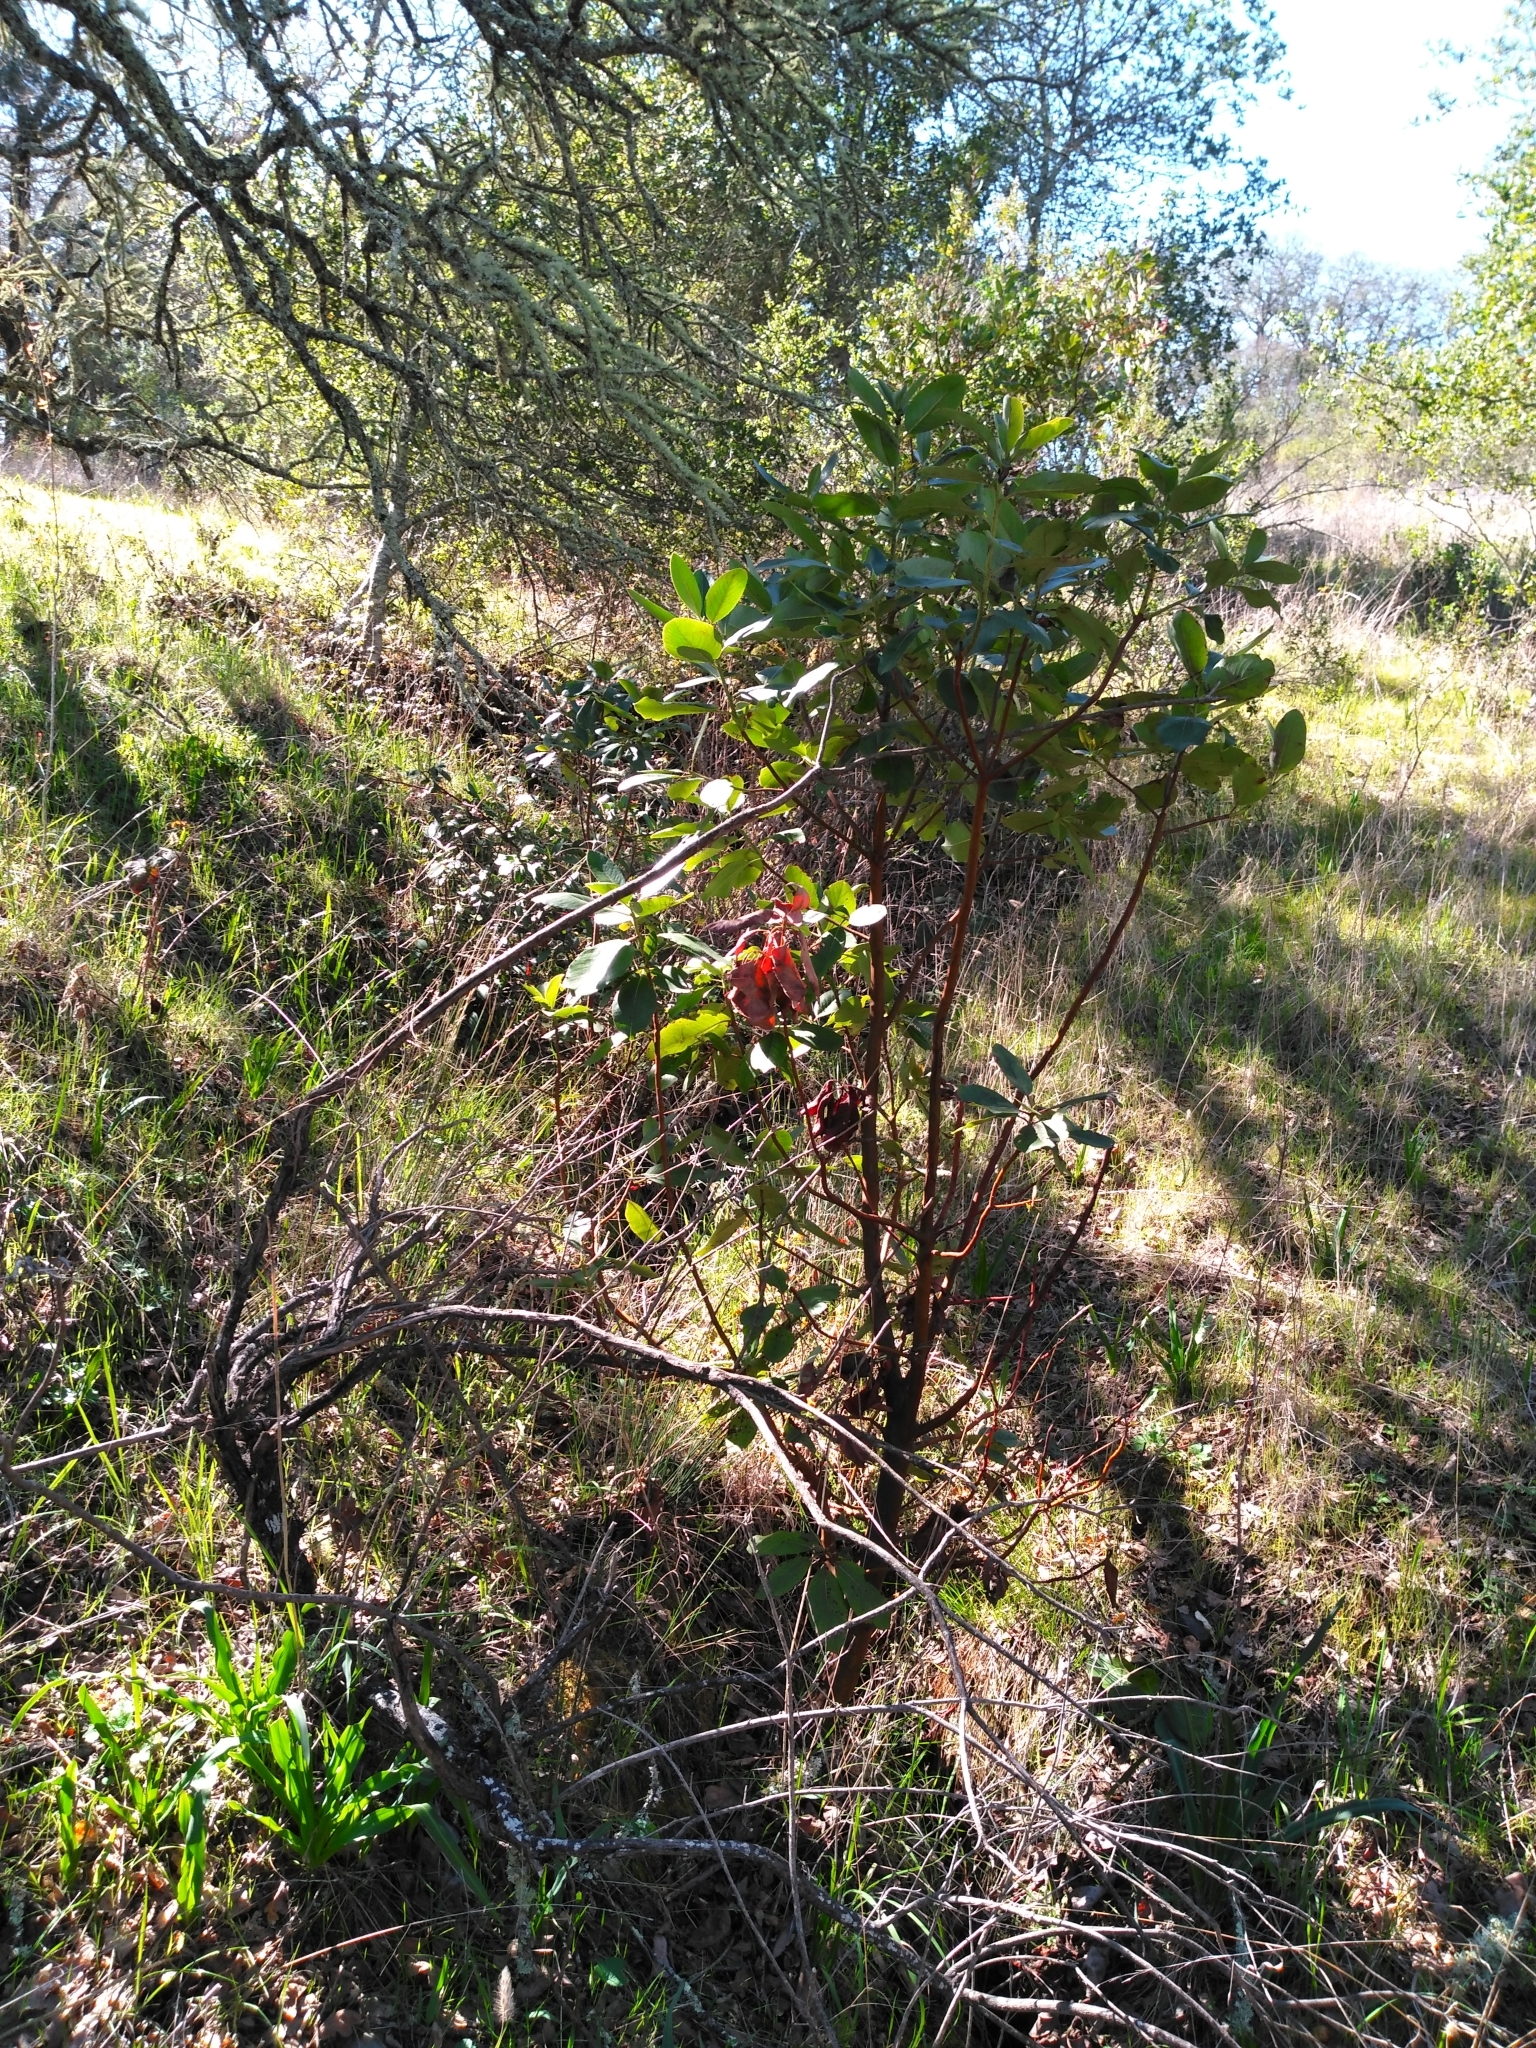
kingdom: Plantae
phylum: Tracheophyta
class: Magnoliopsida
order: Ericales
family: Ericaceae
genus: Arbutus
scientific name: Arbutus menziesii
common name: Pacific madrone
